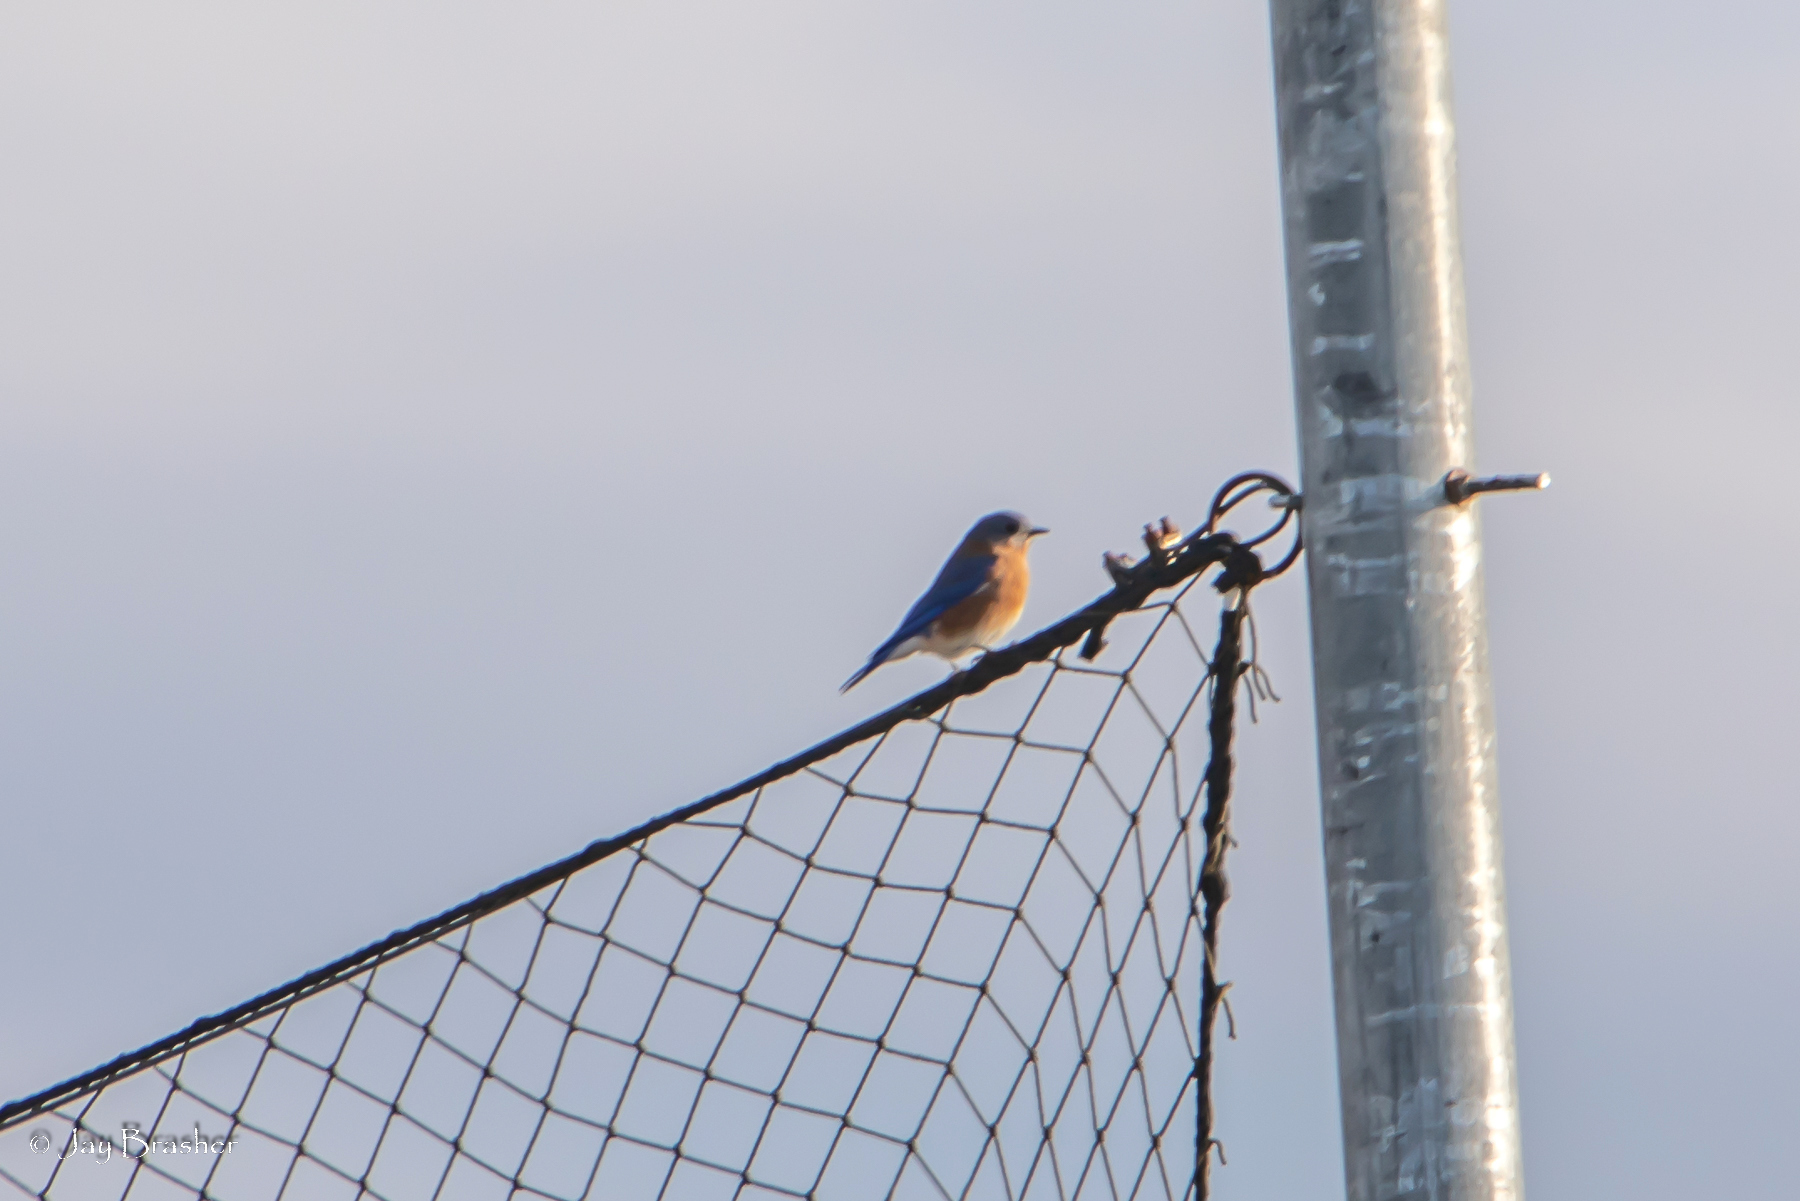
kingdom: Animalia
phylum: Chordata
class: Aves
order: Passeriformes
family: Turdidae
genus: Sialia
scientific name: Sialia sialis
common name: Eastern bluebird
